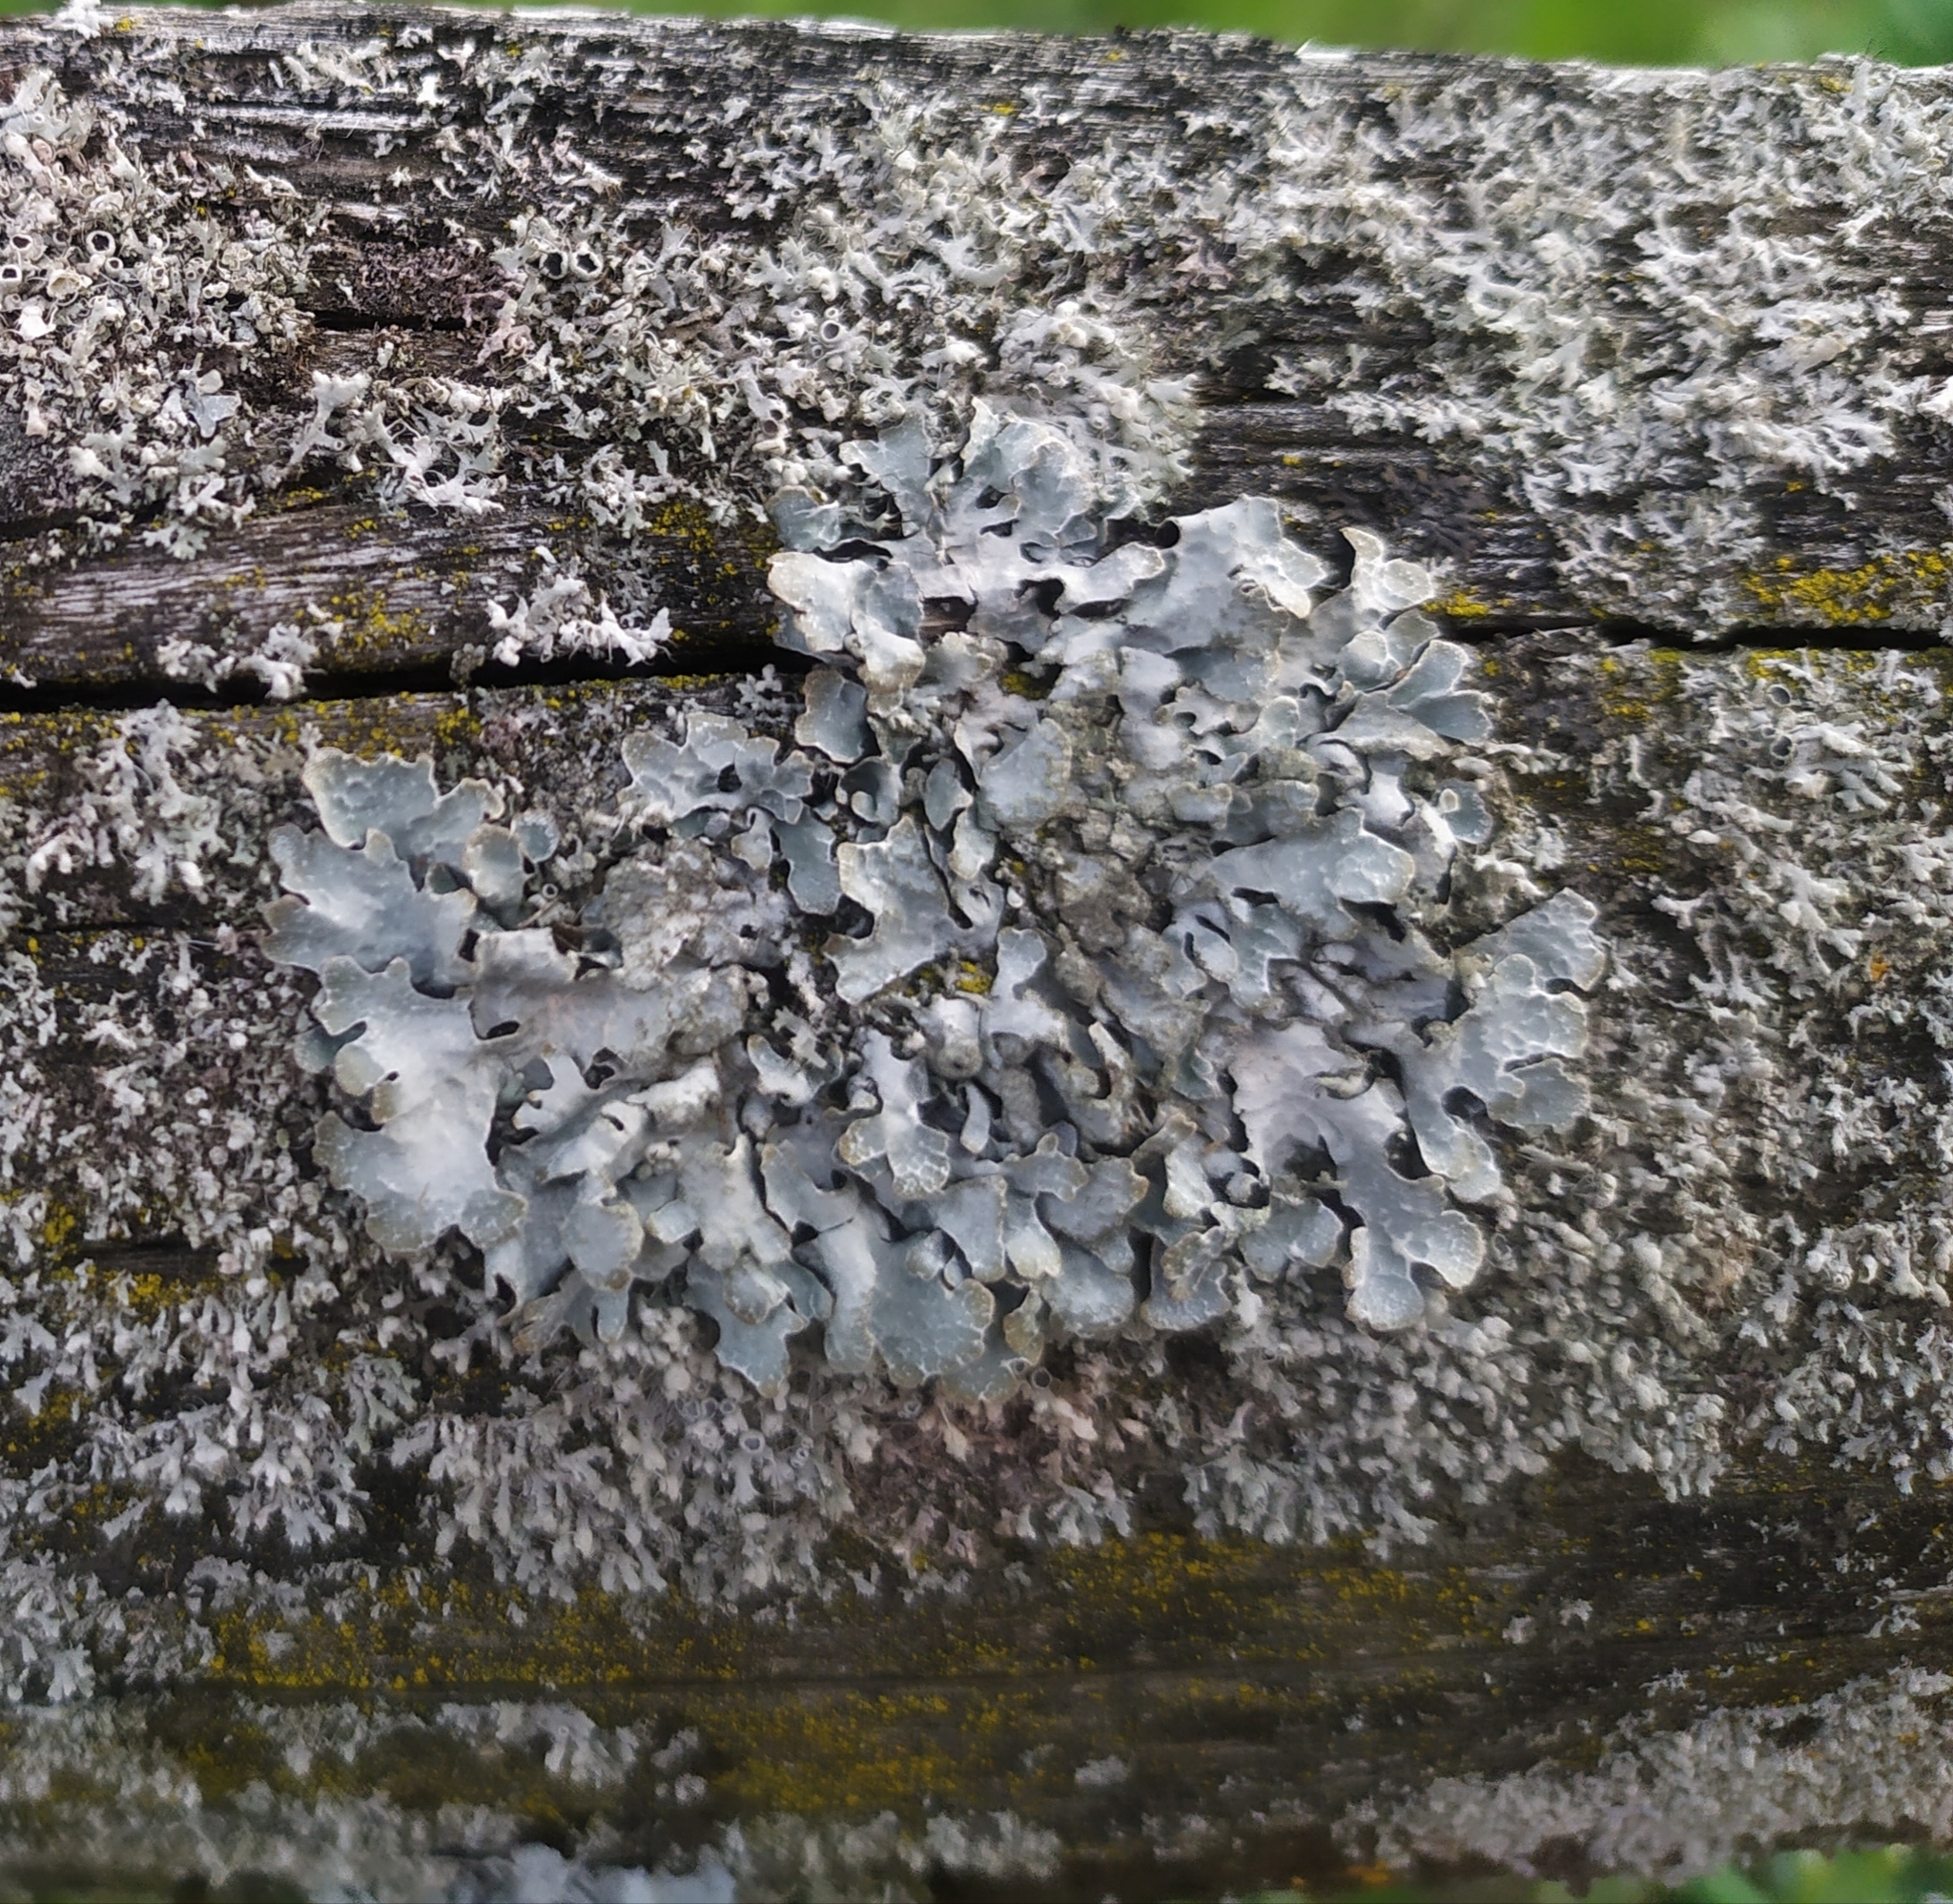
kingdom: Fungi
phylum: Ascomycota
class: Lecanoromycetes
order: Lecanorales
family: Parmeliaceae
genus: Parmelia
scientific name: Parmelia sulcata
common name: Netted shield lichen
